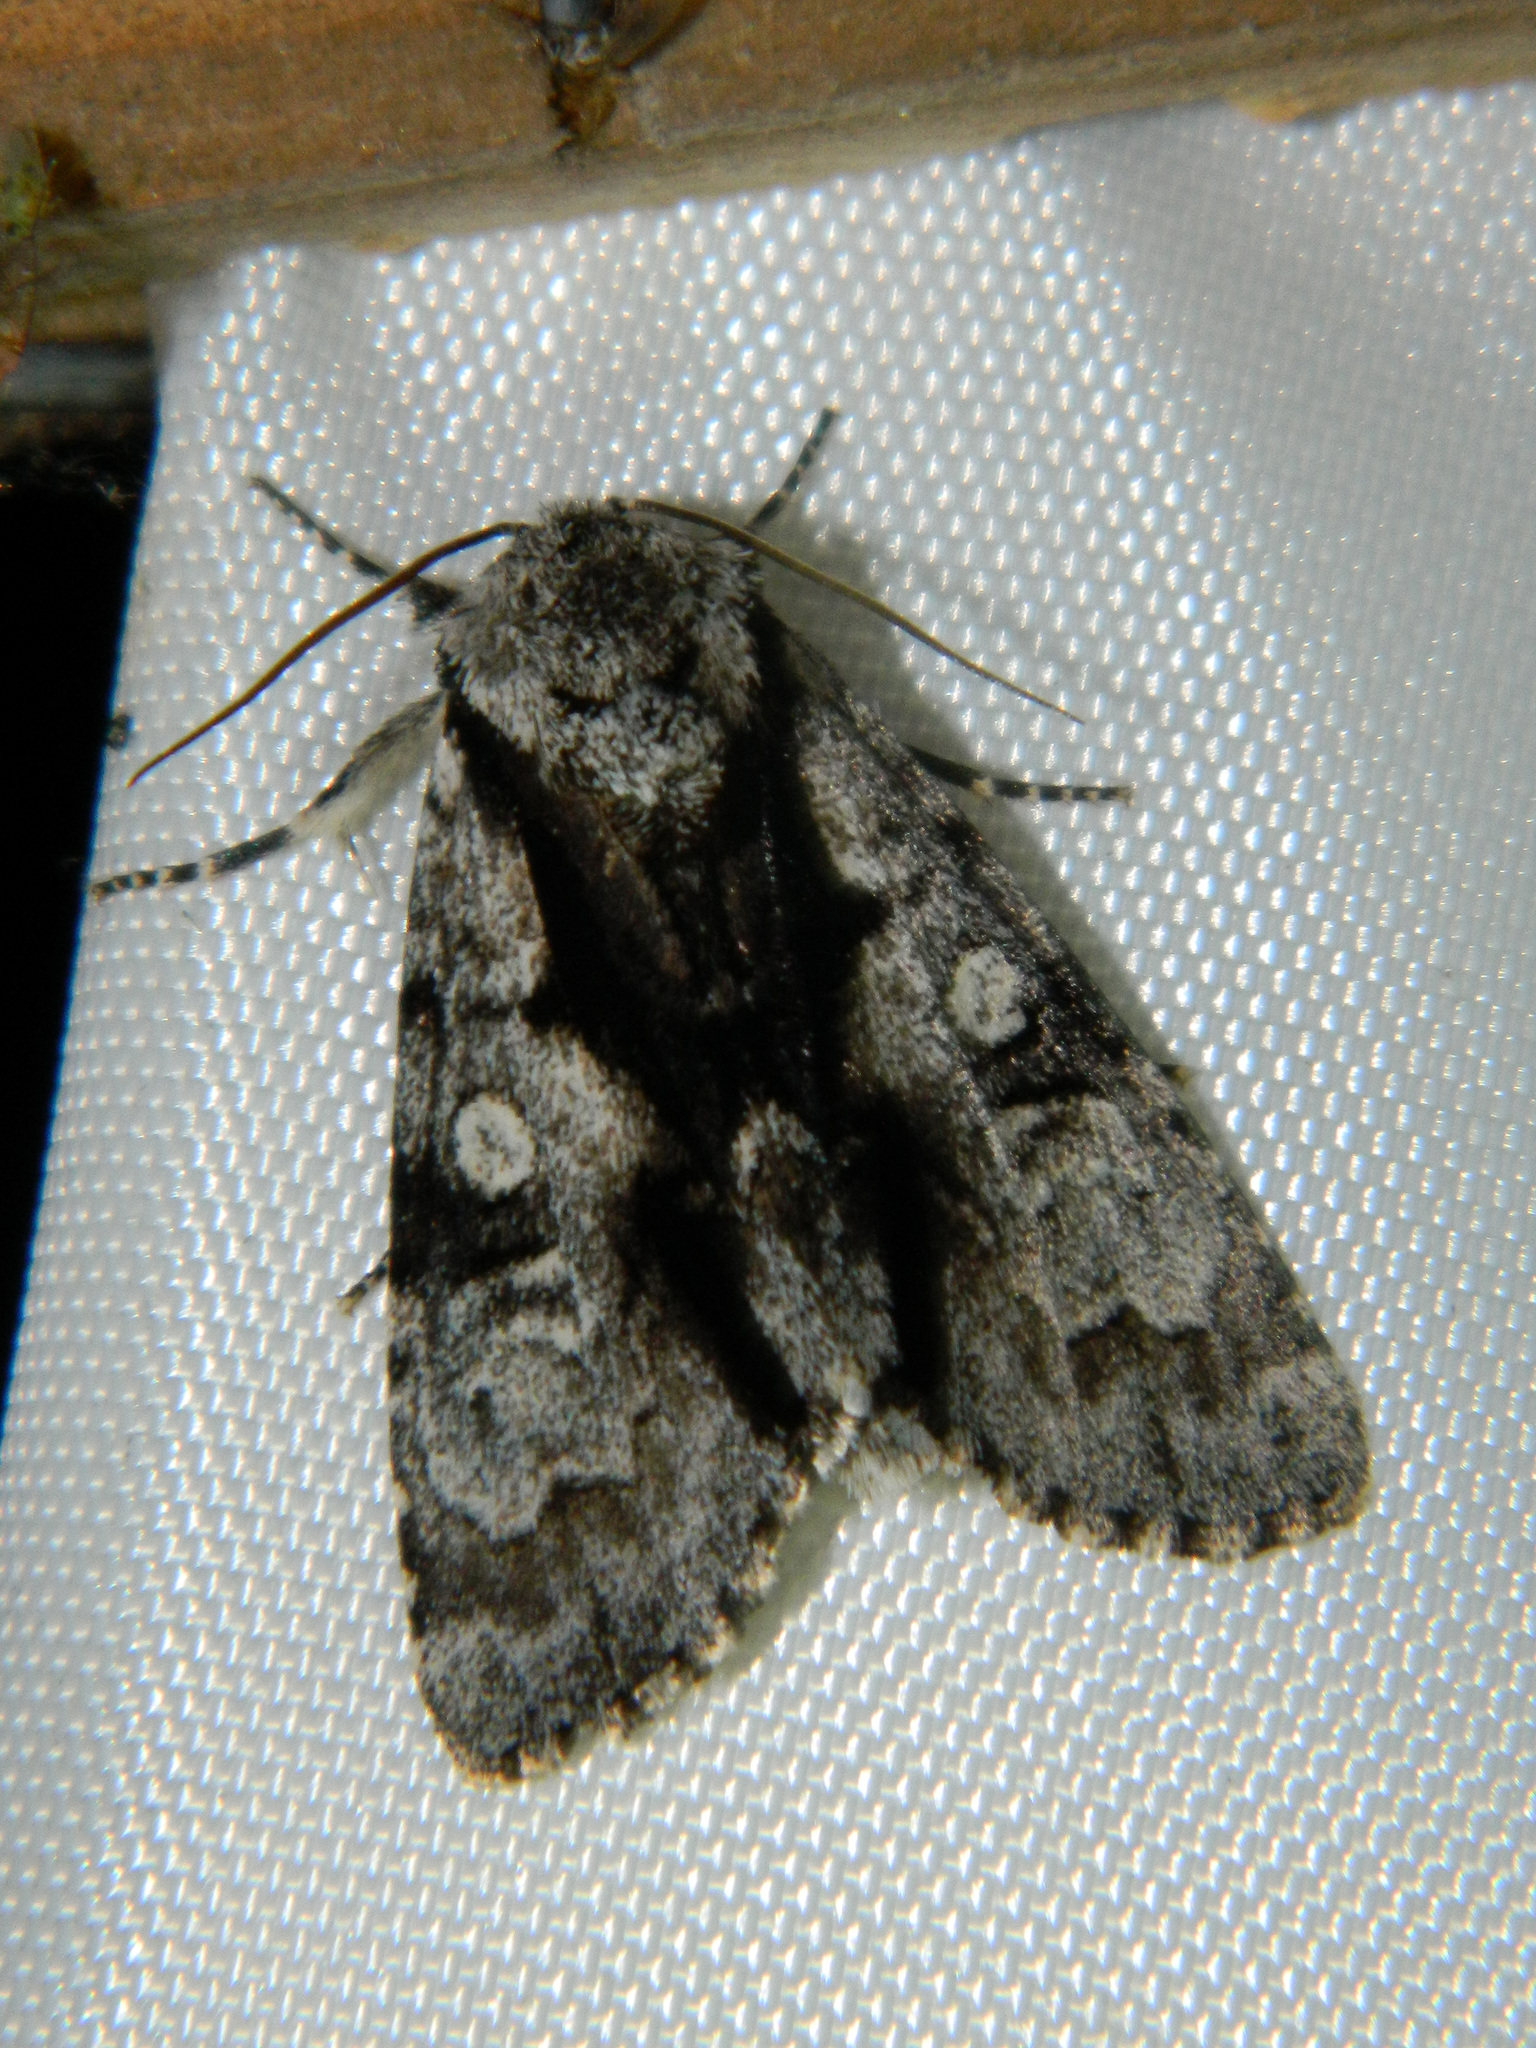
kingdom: Animalia
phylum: Arthropoda
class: Insecta
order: Lepidoptera
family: Noctuidae
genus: Acronicta
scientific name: Acronicta funeralis
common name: Funerary dagger
